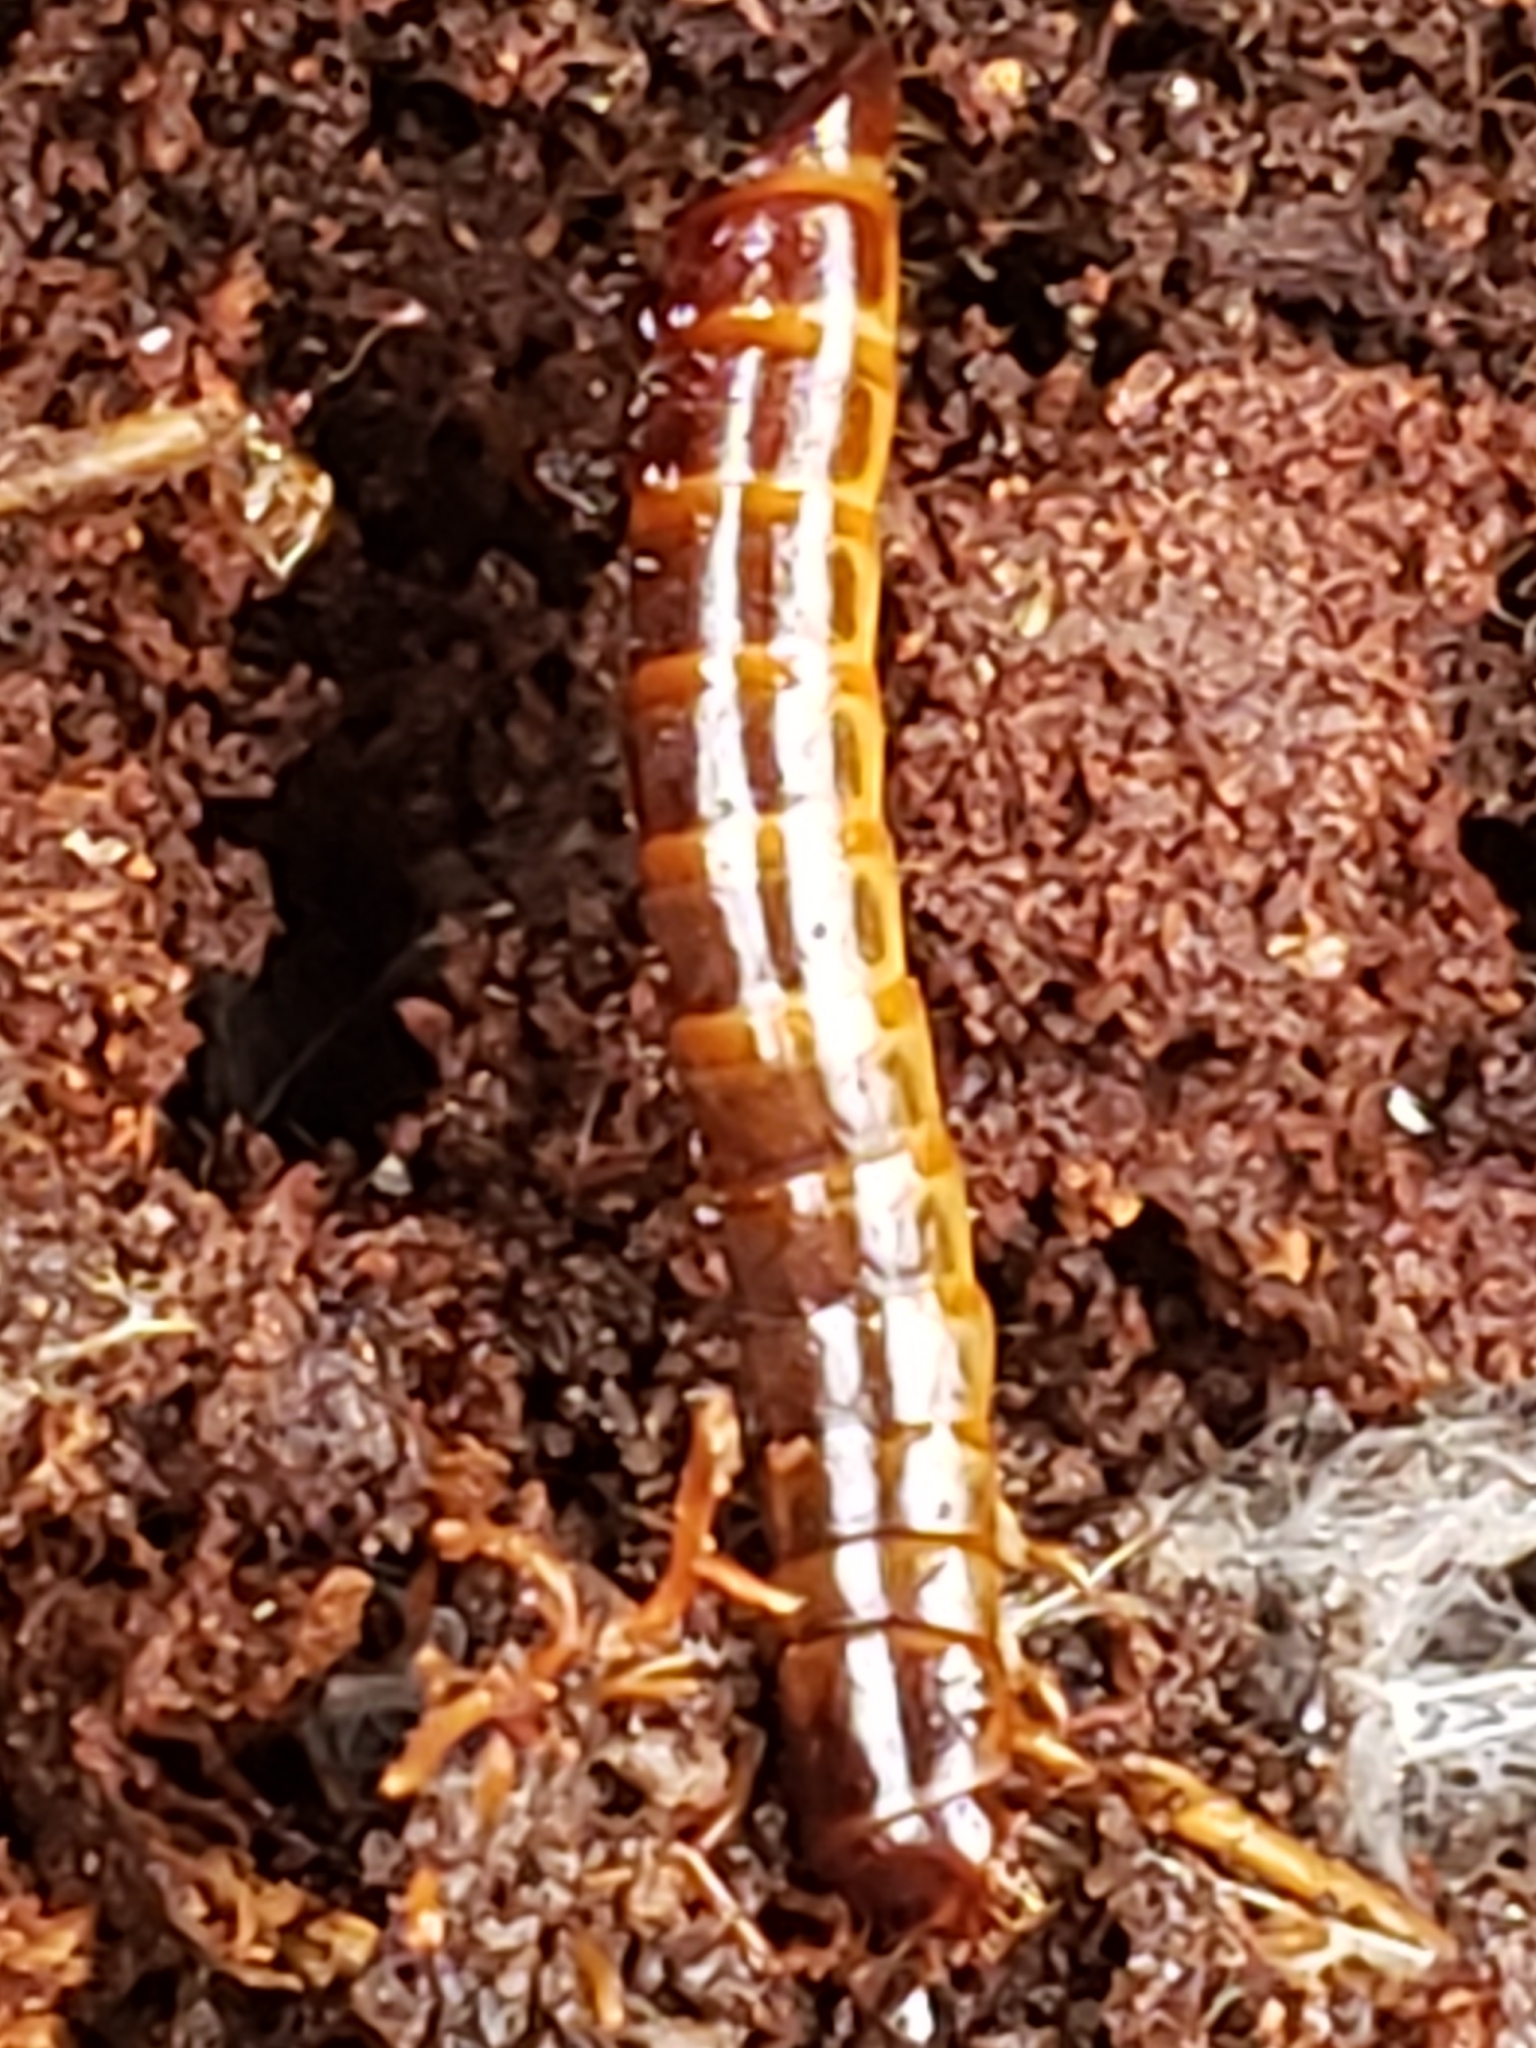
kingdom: Animalia
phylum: Arthropoda
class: Insecta
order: Coleoptera
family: Tenebrionidae
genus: Meracantha
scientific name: Meracantha contracta
